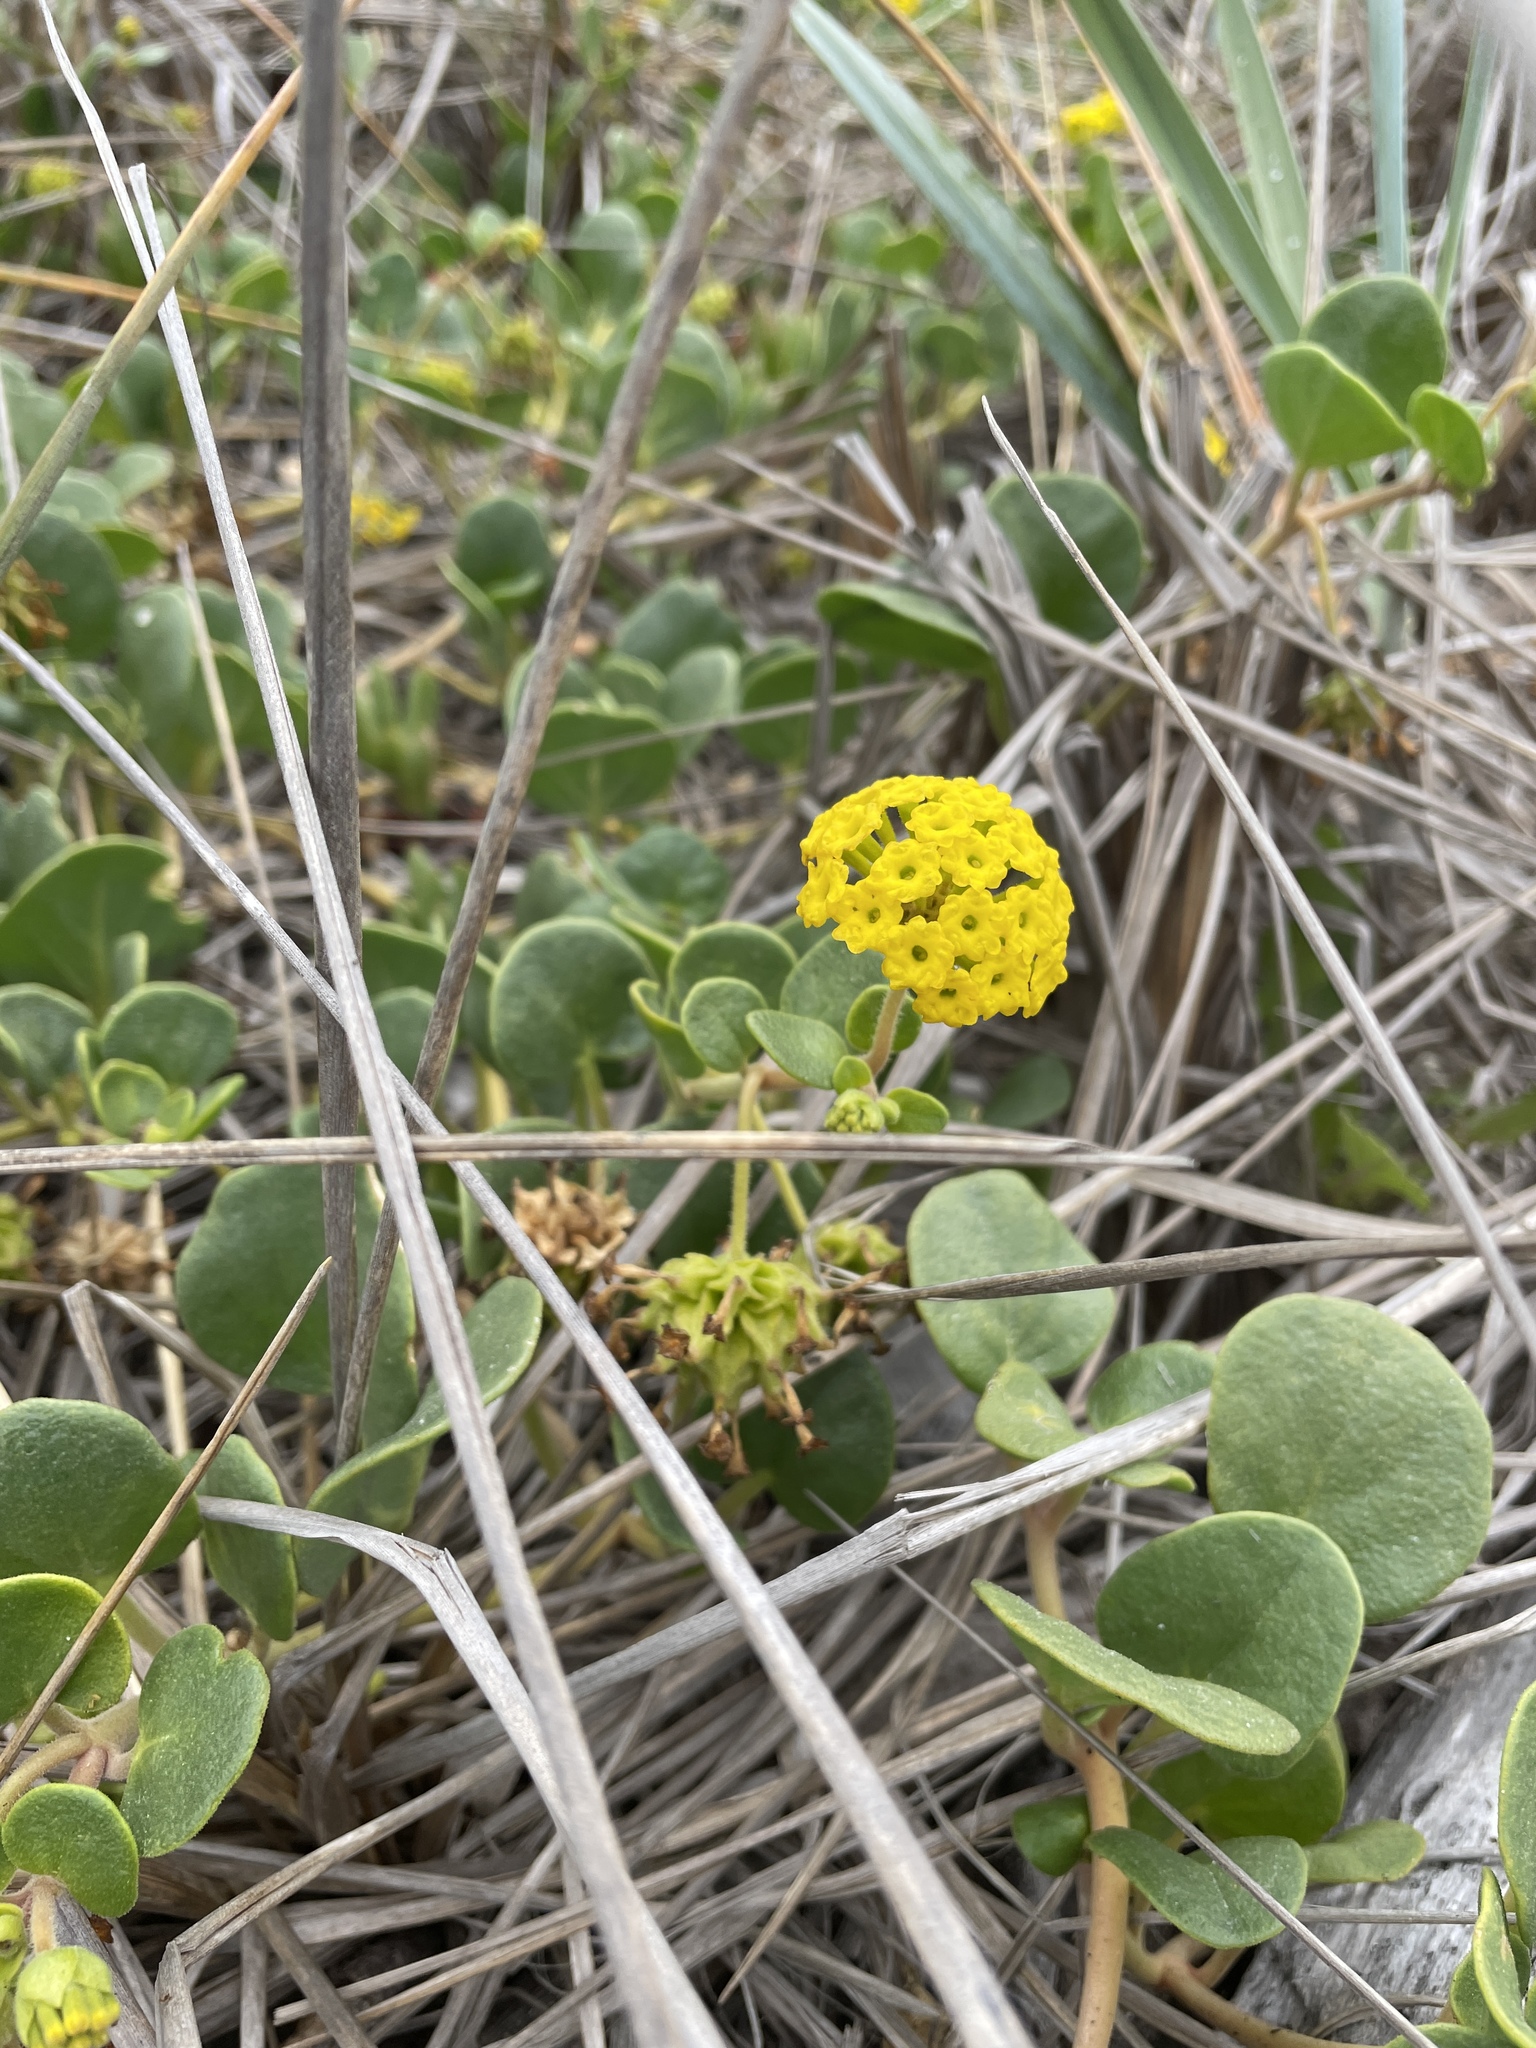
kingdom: Plantae
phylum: Tracheophyta
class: Magnoliopsida
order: Caryophyllales
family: Nyctaginaceae
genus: Abronia
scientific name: Abronia latifolia
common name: Yellow sand-verbena
